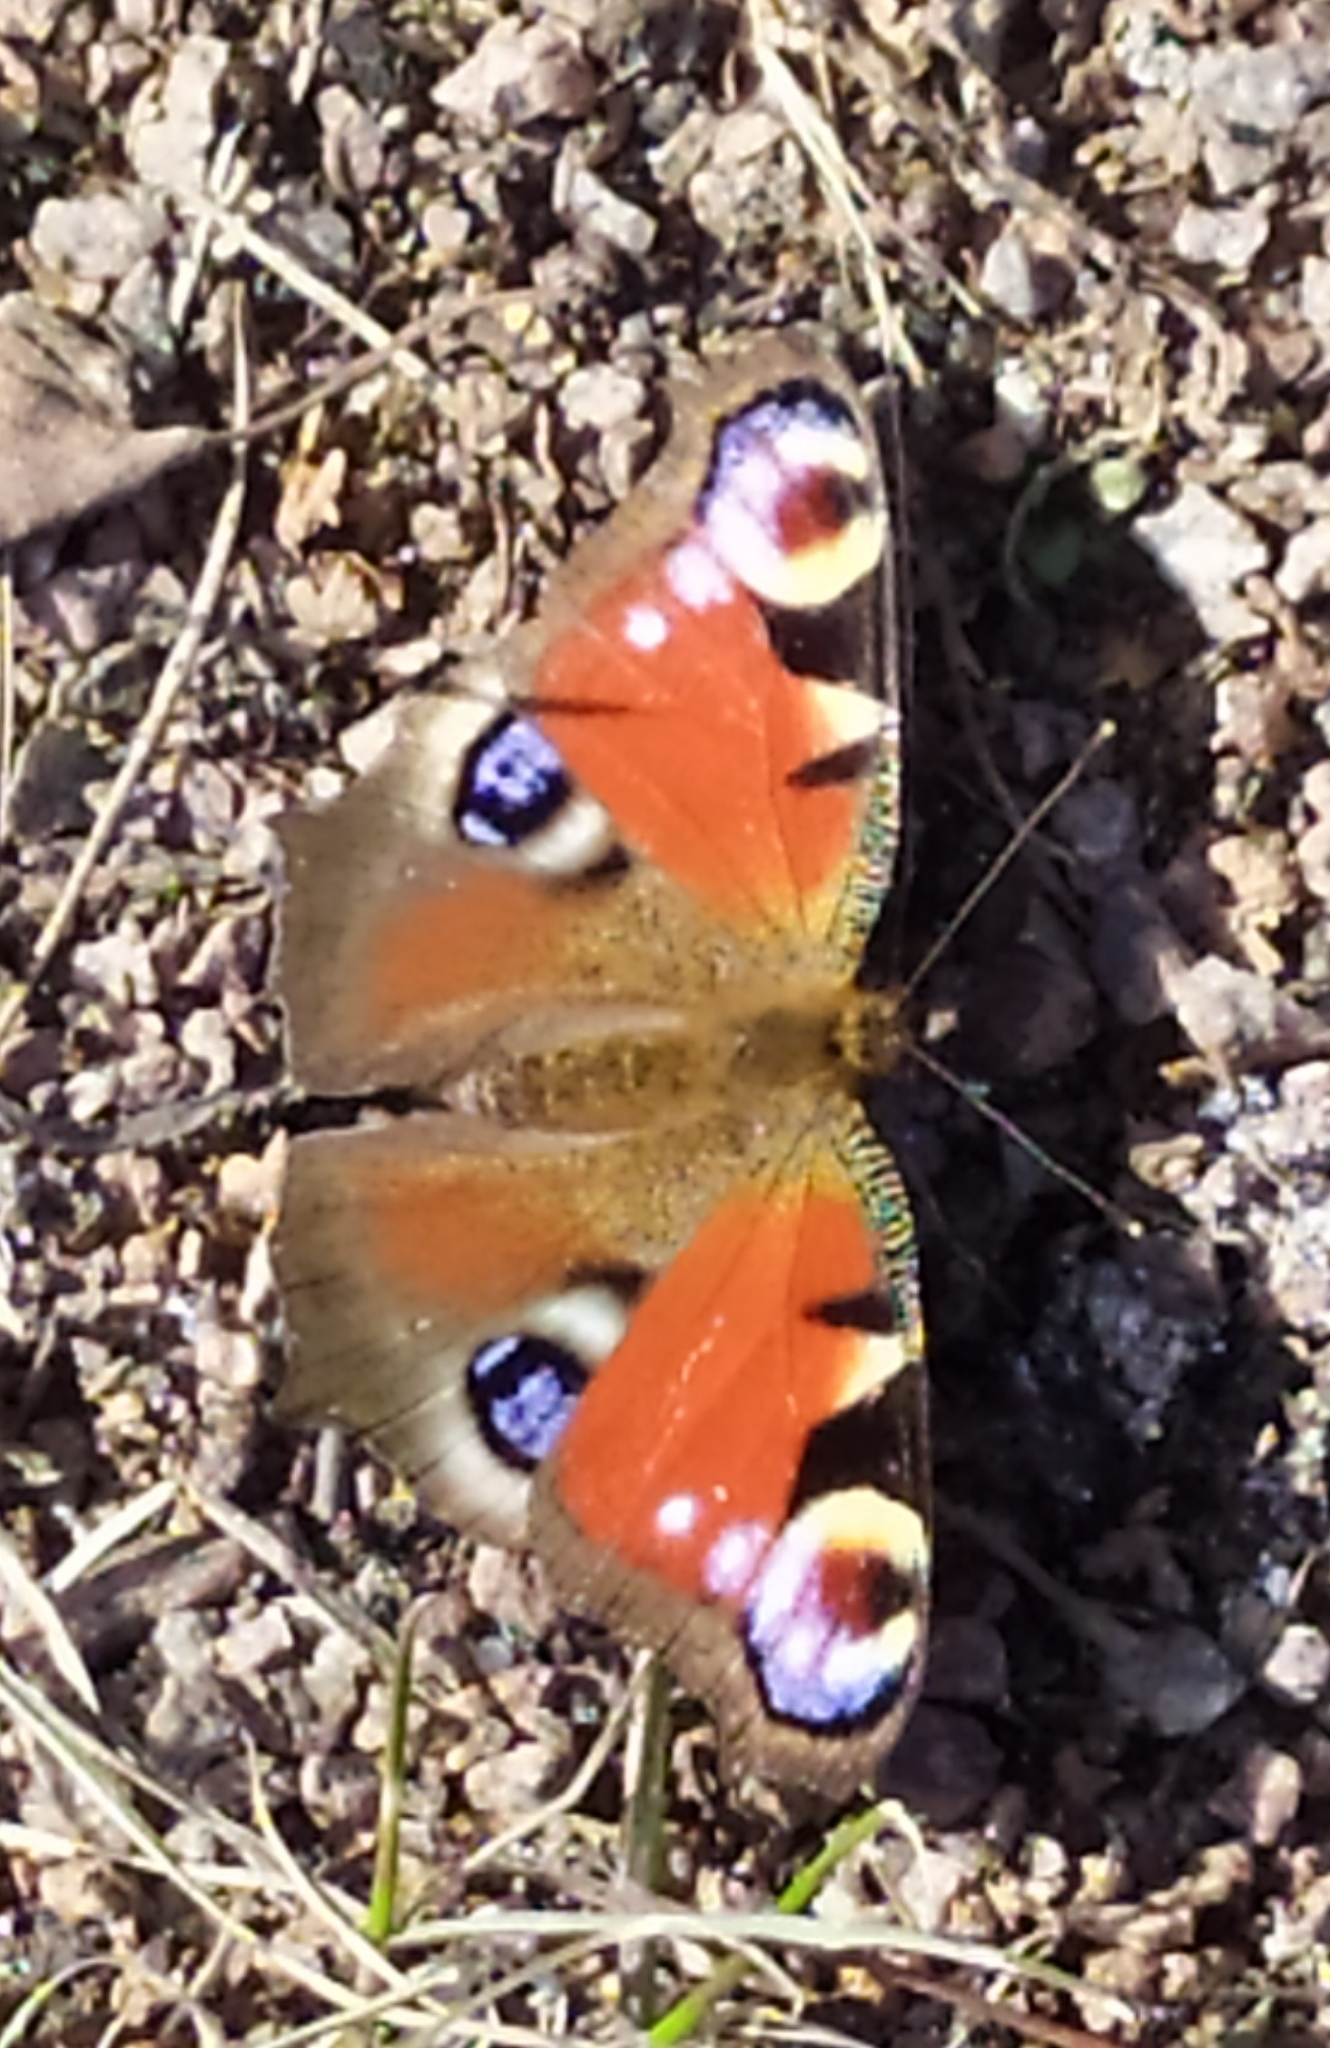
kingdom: Animalia
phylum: Arthropoda
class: Insecta
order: Lepidoptera
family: Nymphalidae
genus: Aglais
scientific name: Aglais io
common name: Peacock
